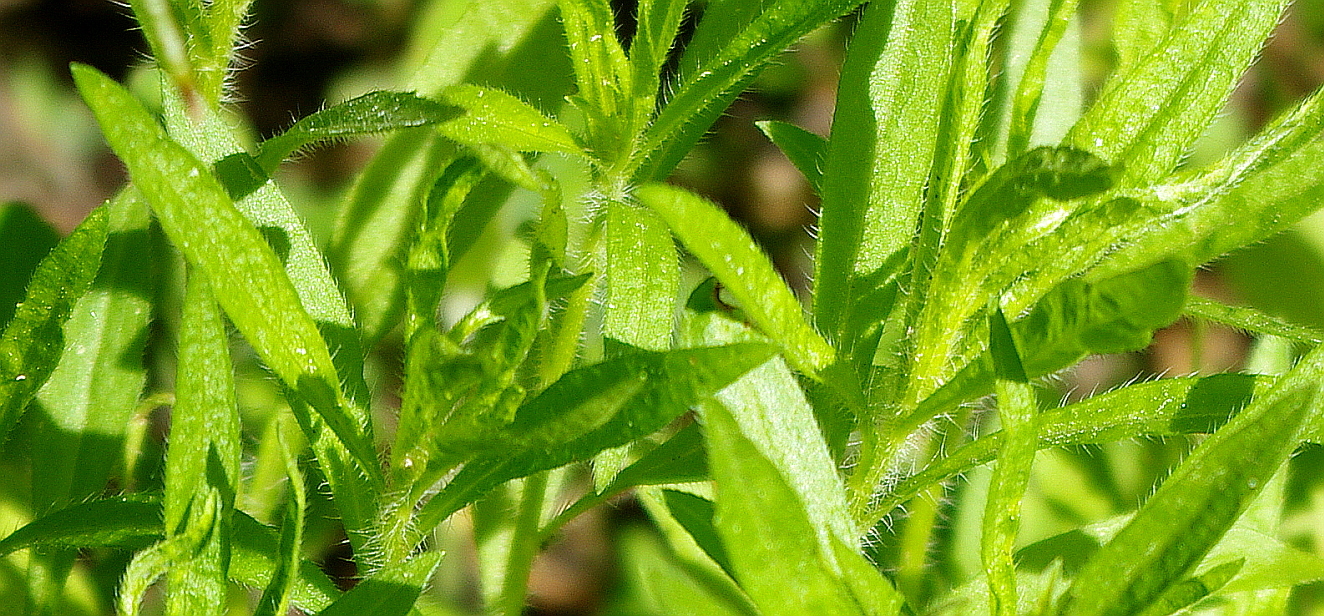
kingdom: Plantae
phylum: Tracheophyta
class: Magnoliopsida
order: Asterales
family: Asteraceae
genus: Erigeron
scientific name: Erigeron canadensis
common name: Canadian fleabane
